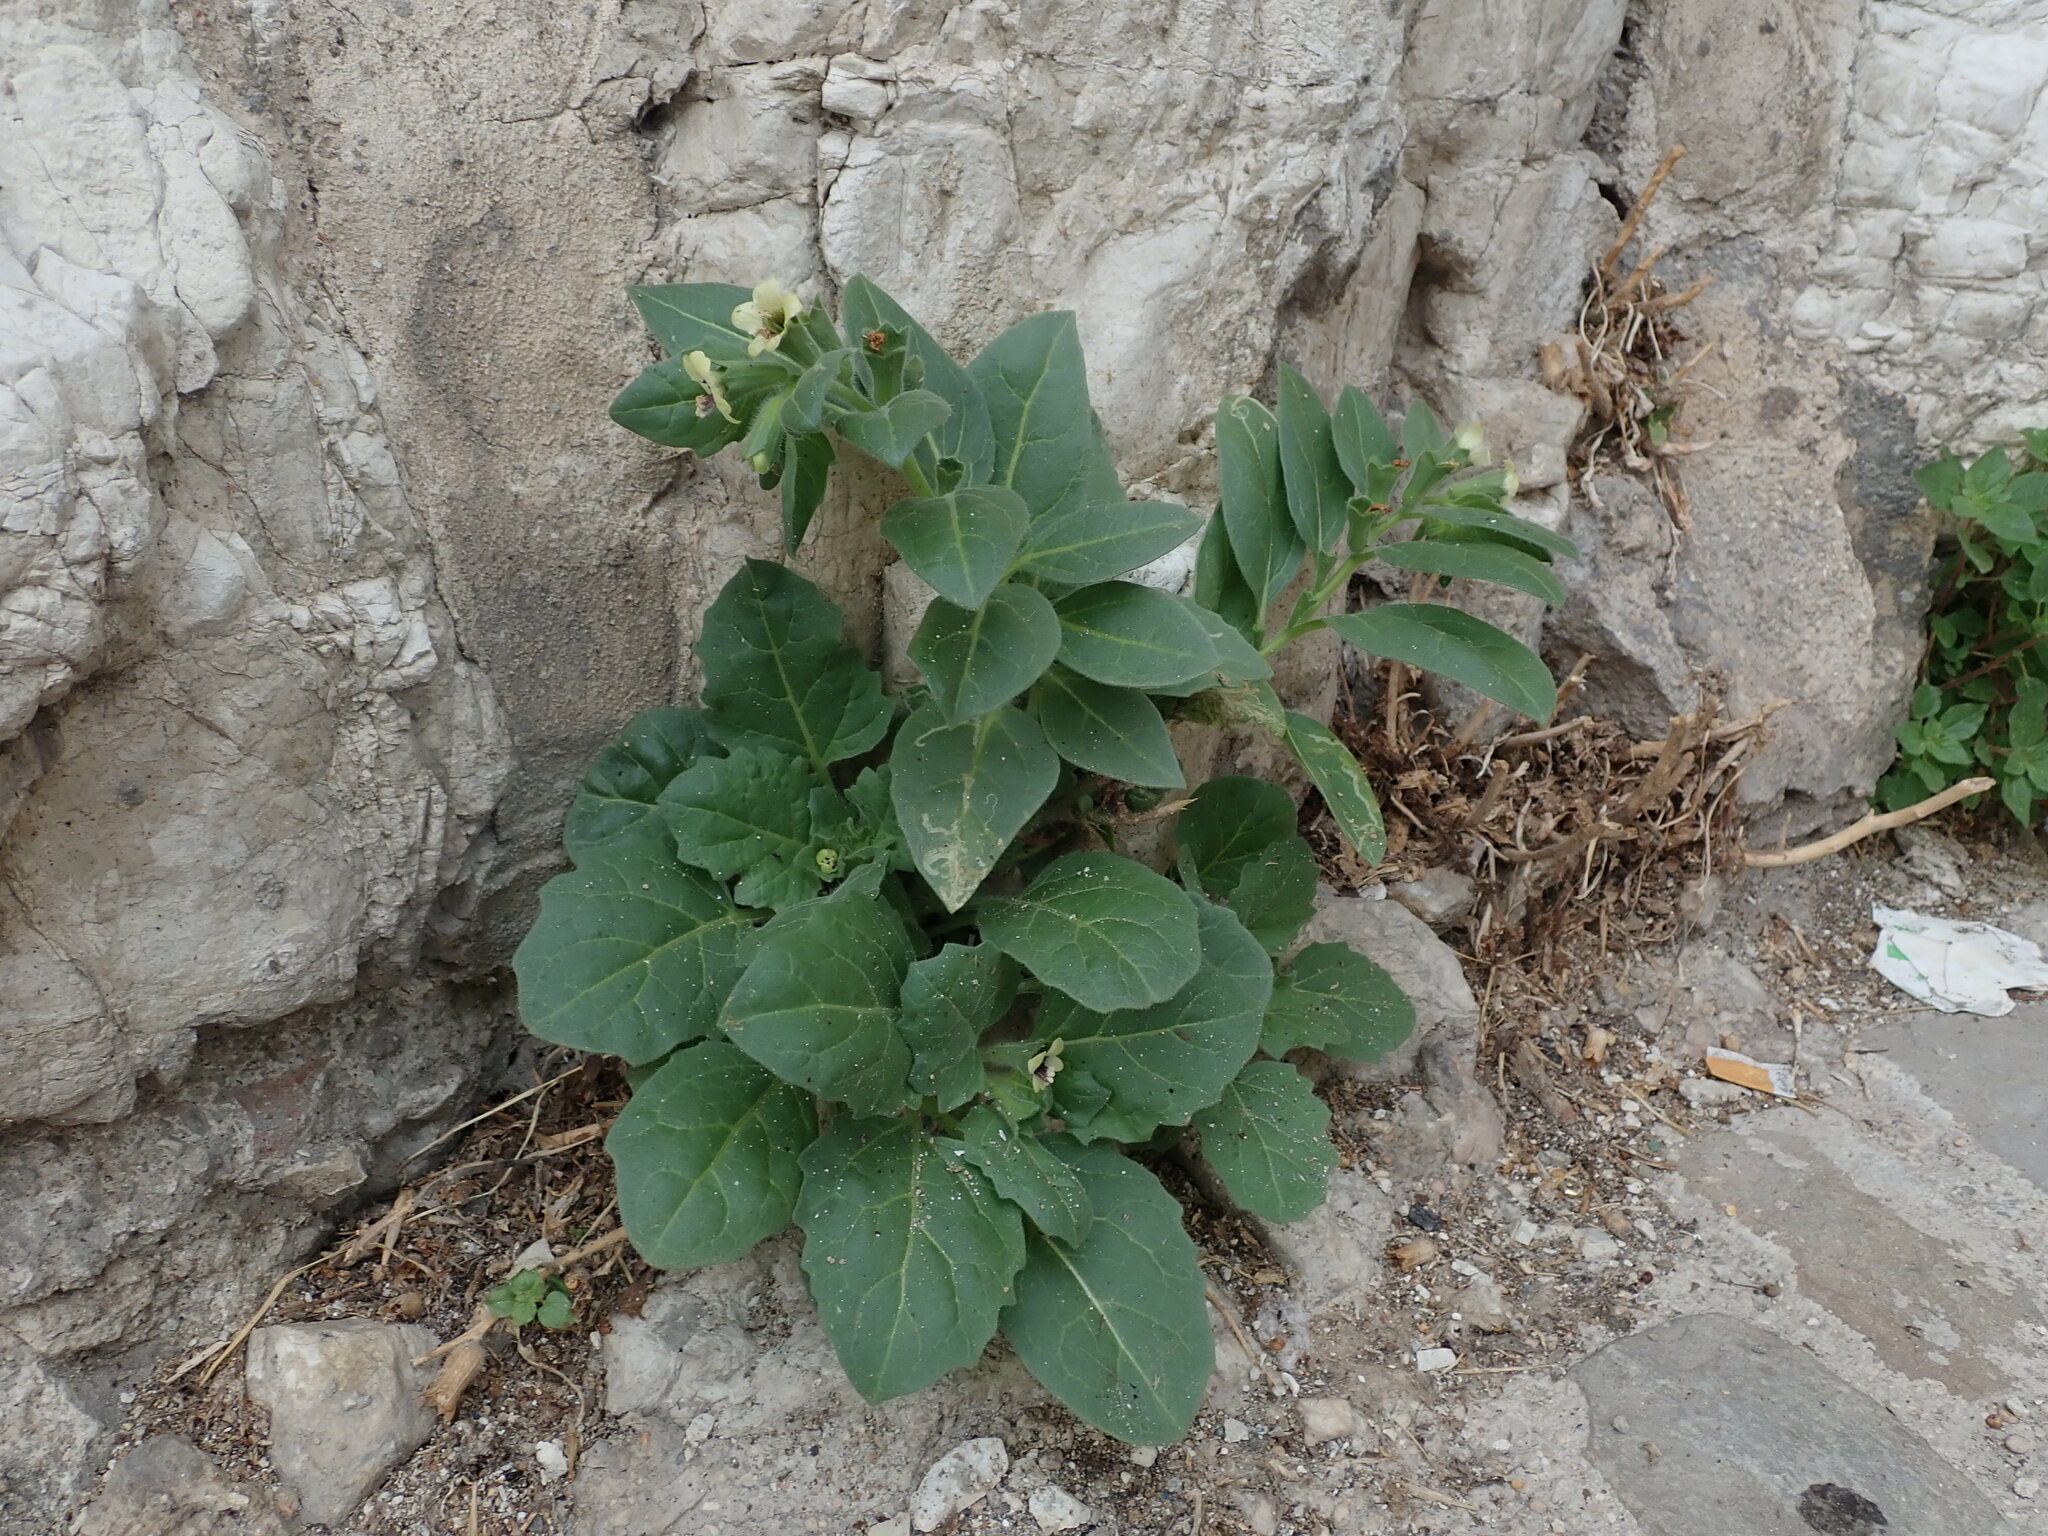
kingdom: Plantae
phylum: Tracheophyta
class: Magnoliopsida
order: Solanales
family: Solanaceae
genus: Hyoscyamus
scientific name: Hyoscyamus albus
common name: White henbane
